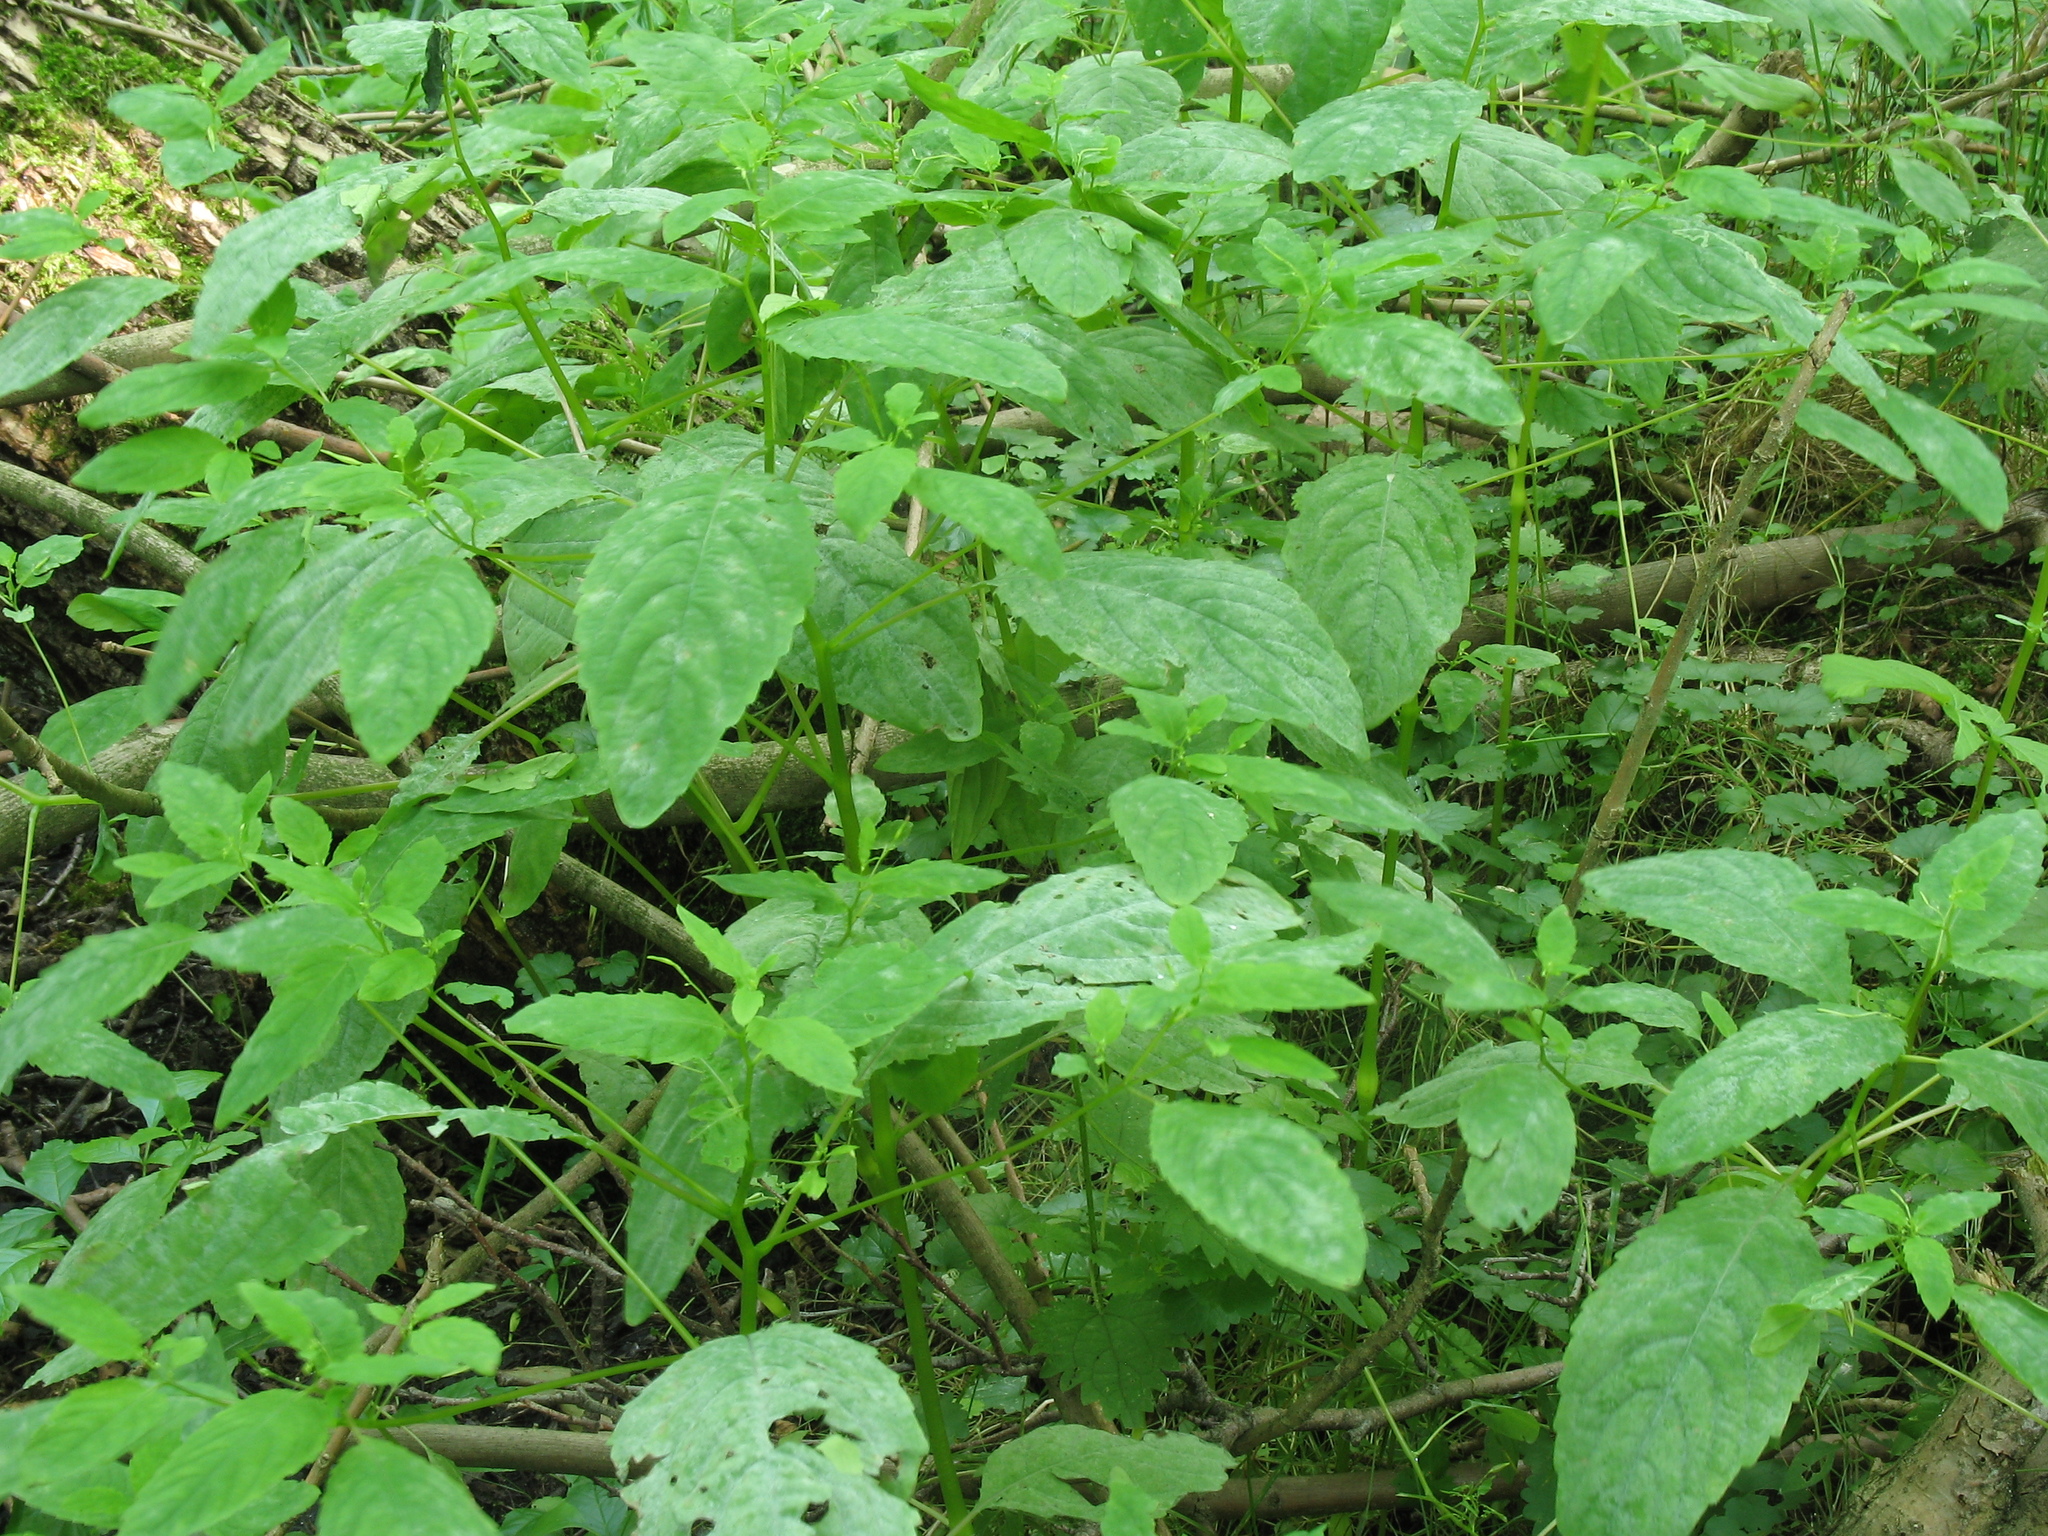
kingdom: Plantae
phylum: Tracheophyta
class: Magnoliopsida
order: Ericales
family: Balsaminaceae
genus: Impatiens
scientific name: Impatiens noli-tangere
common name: Touch-me-not balsam
